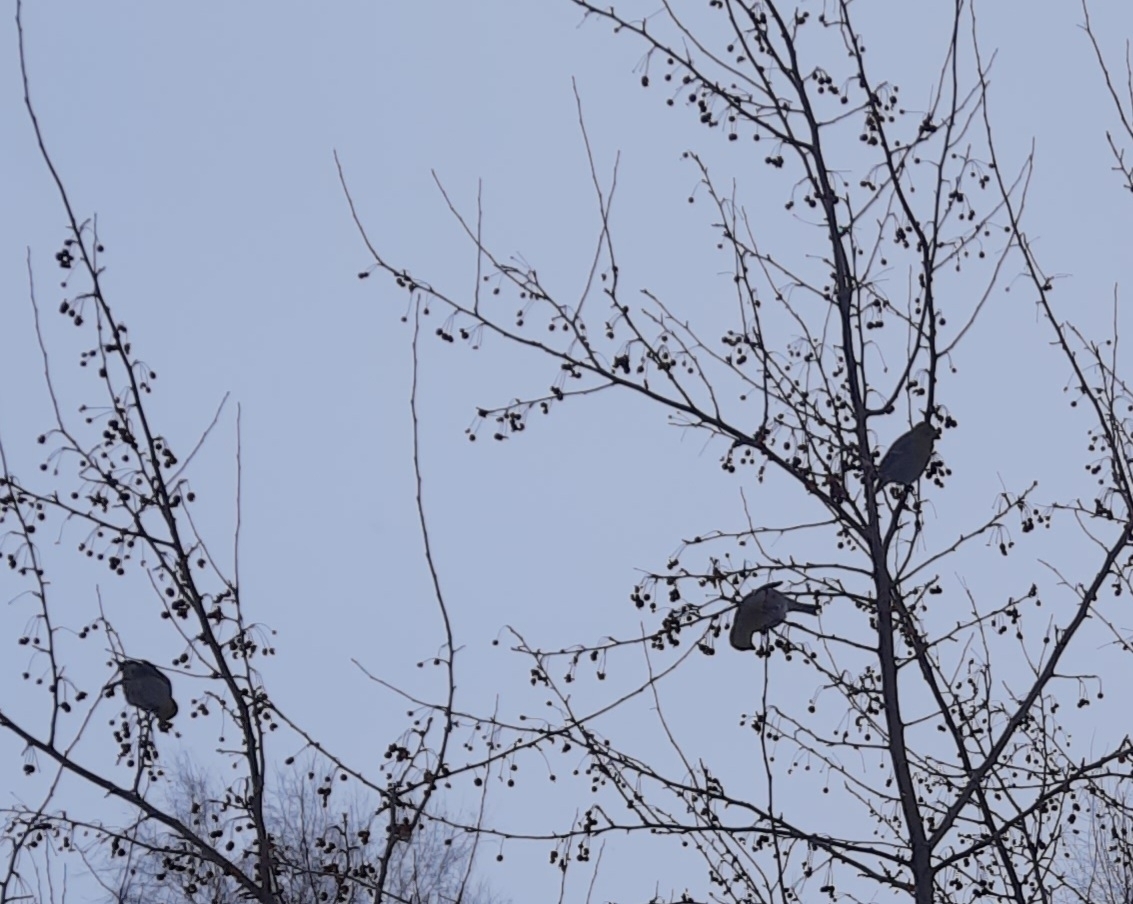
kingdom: Animalia
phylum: Chordata
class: Aves
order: Passeriformes
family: Fringillidae
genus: Pinicola
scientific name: Pinicola enucleator
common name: Pine grosbeak
